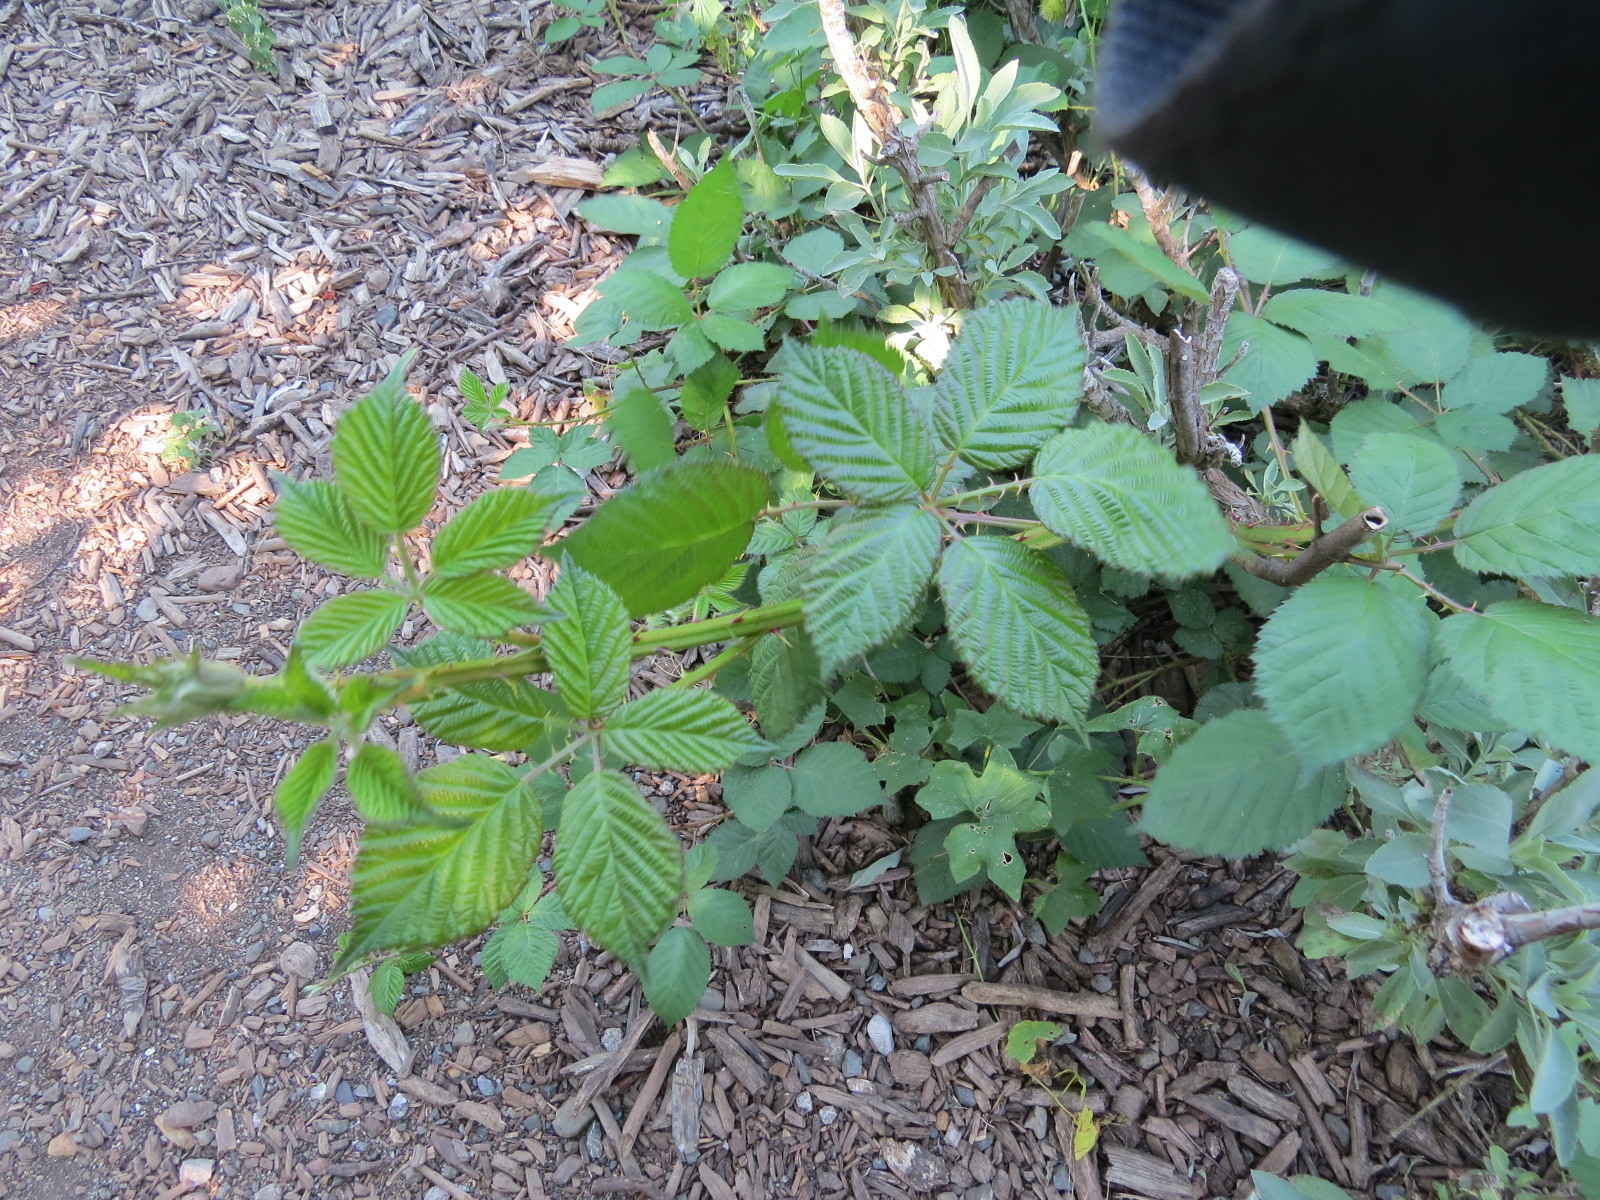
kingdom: Plantae
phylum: Tracheophyta
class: Magnoliopsida
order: Rosales
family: Rosaceae
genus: Rubus
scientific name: Rubus armeniacus
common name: Himalayan blackberry
